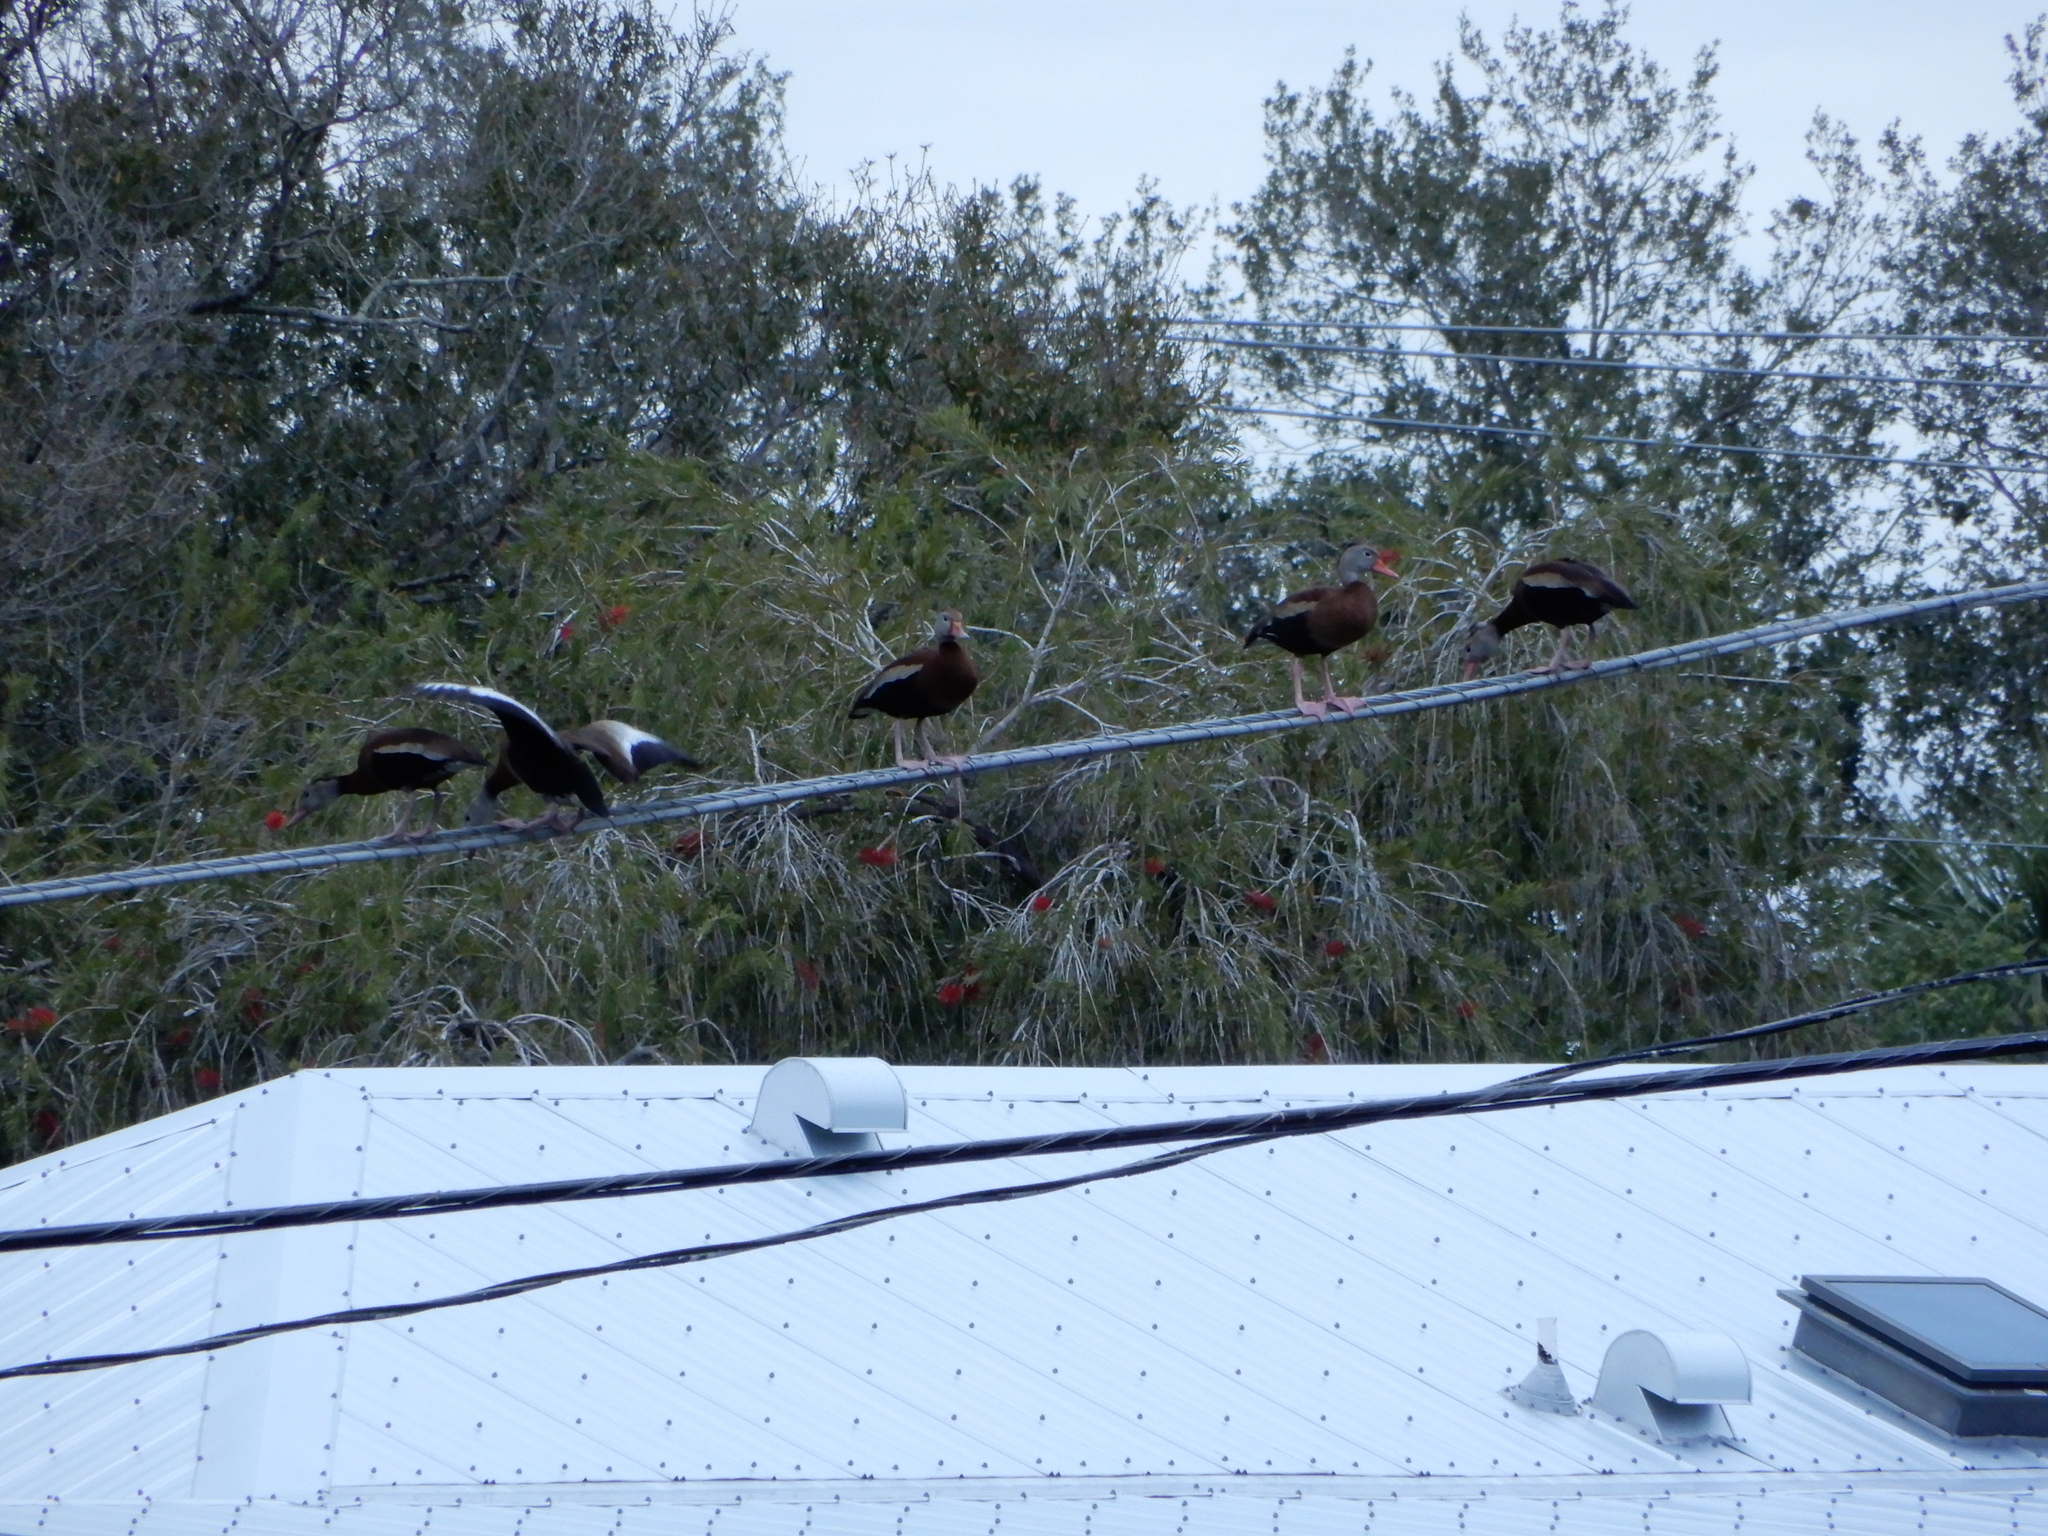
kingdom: Animalia
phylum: Chordata
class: Aves
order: Anseriformes
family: Anatidae
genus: Dendrocygna
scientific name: Dendrocygna autumnalis
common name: Black-bellied whistling duck
